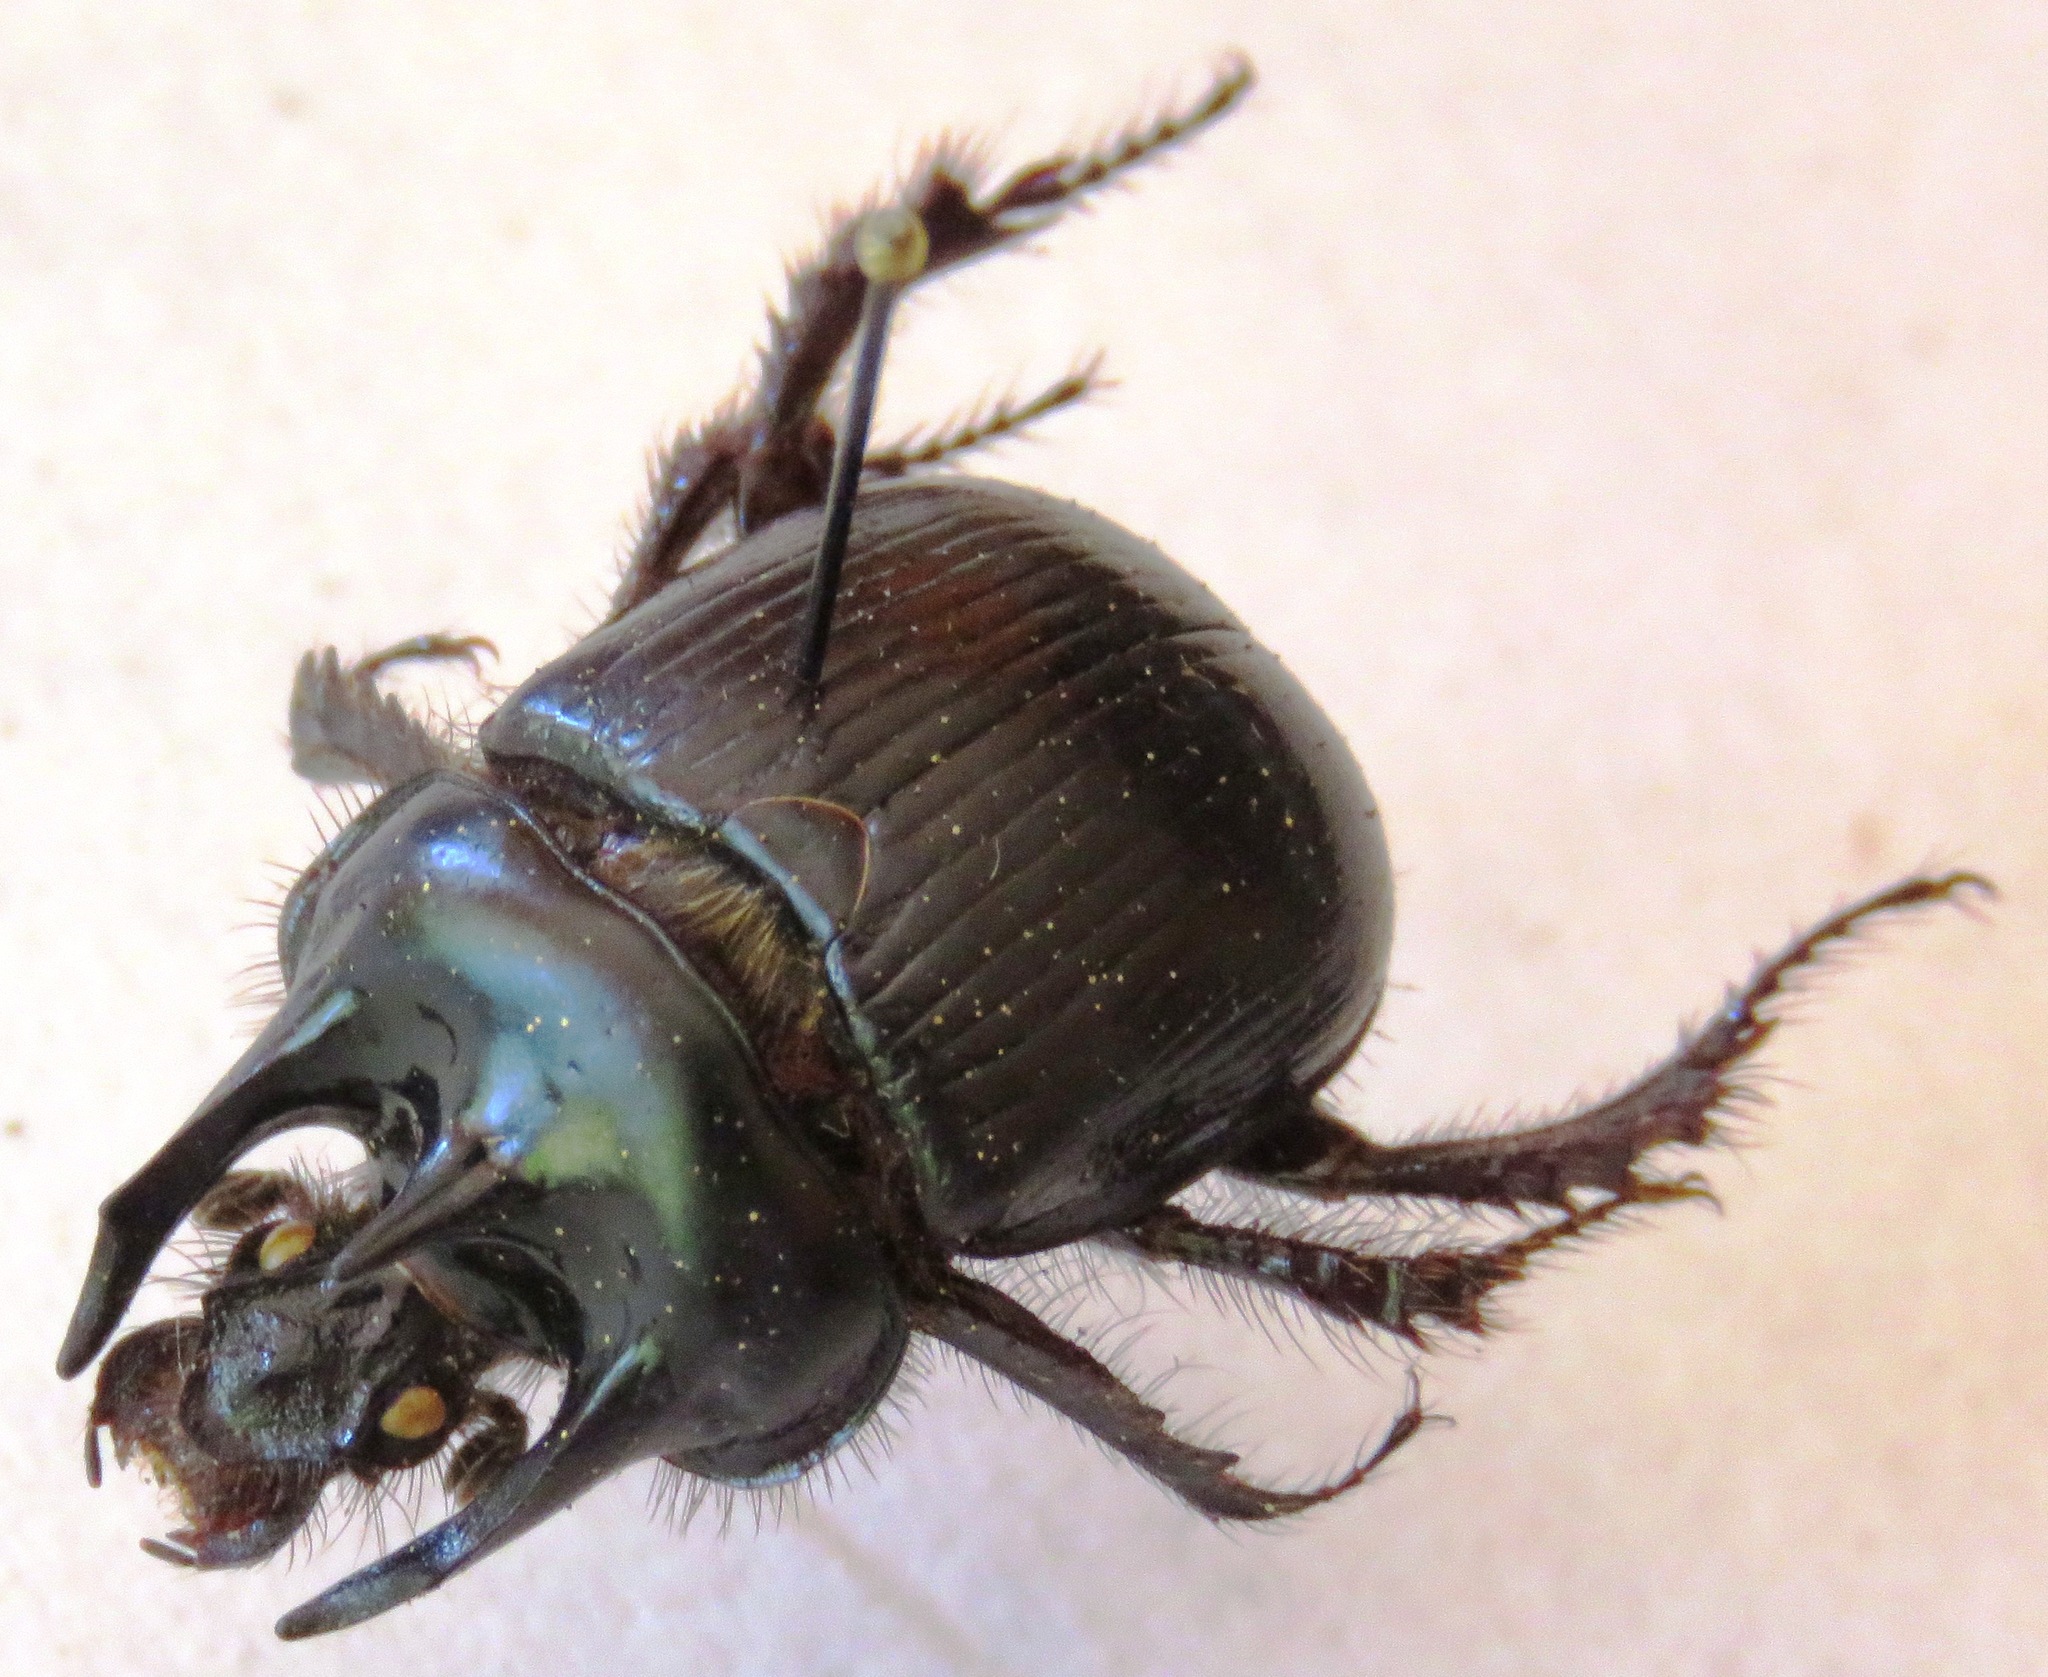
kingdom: Animalia
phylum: Arthropoda
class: Insecta
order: Coleoptera
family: Geotrupidae
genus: Typhaeus
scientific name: Typhaeus typhoeus
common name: Minotaur beetle
